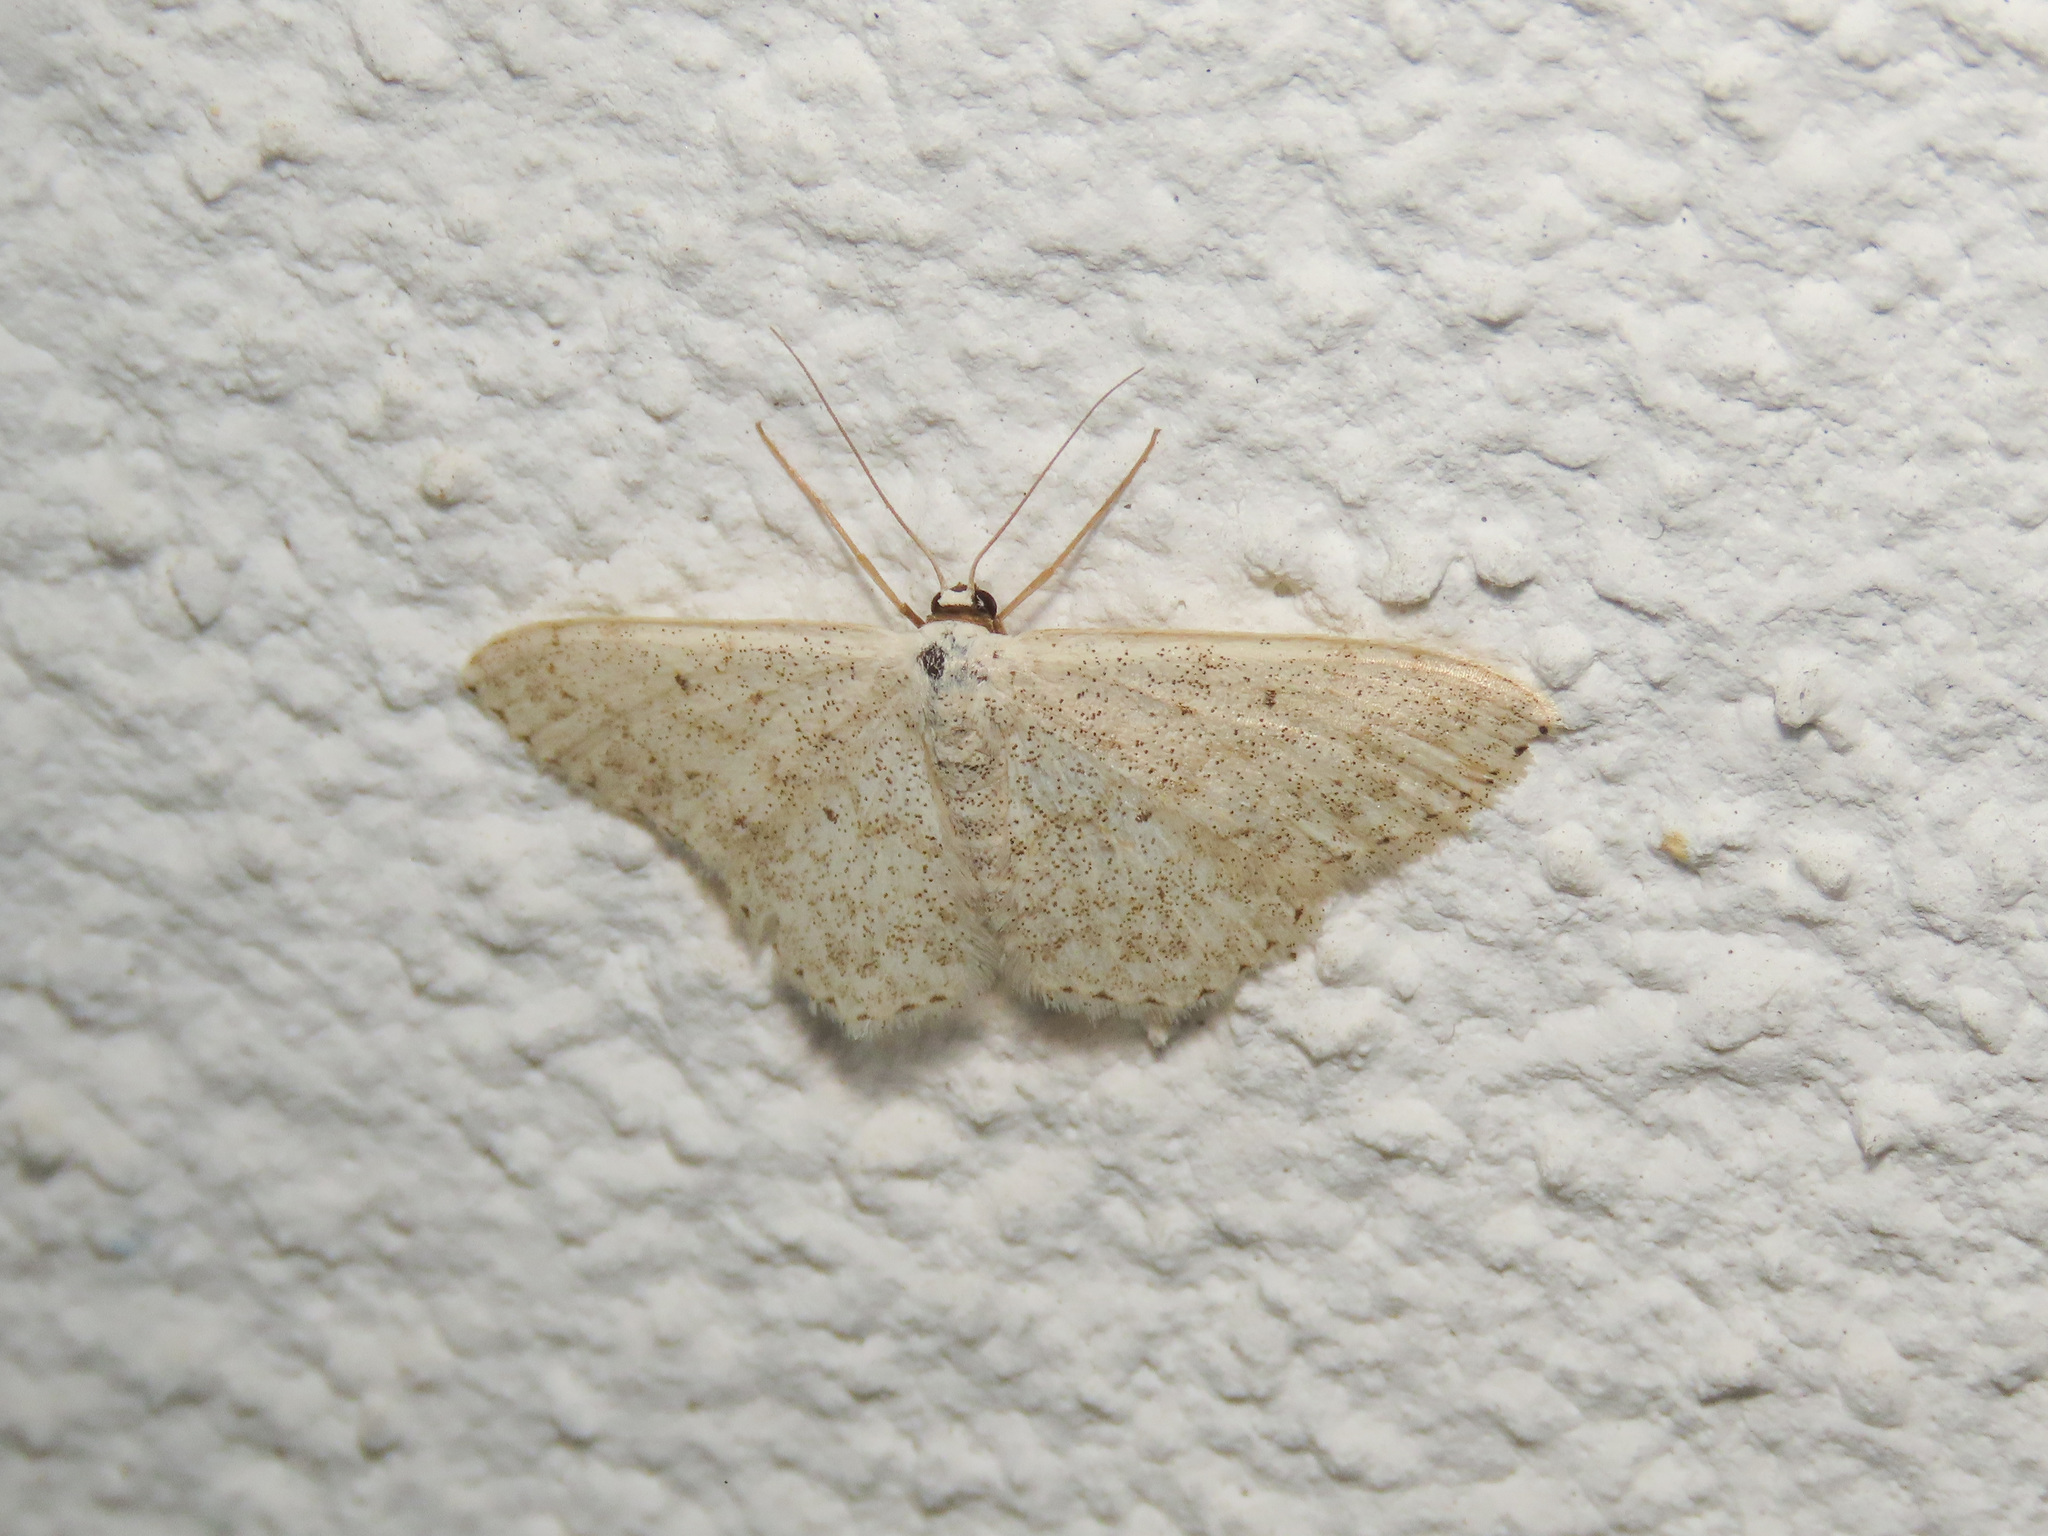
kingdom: Animalia
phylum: Arthropoda
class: Insecta
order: Lepidoptera
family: Geometridae
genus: Scopula
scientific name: Scopula marginepunctata
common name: Mullein wave
